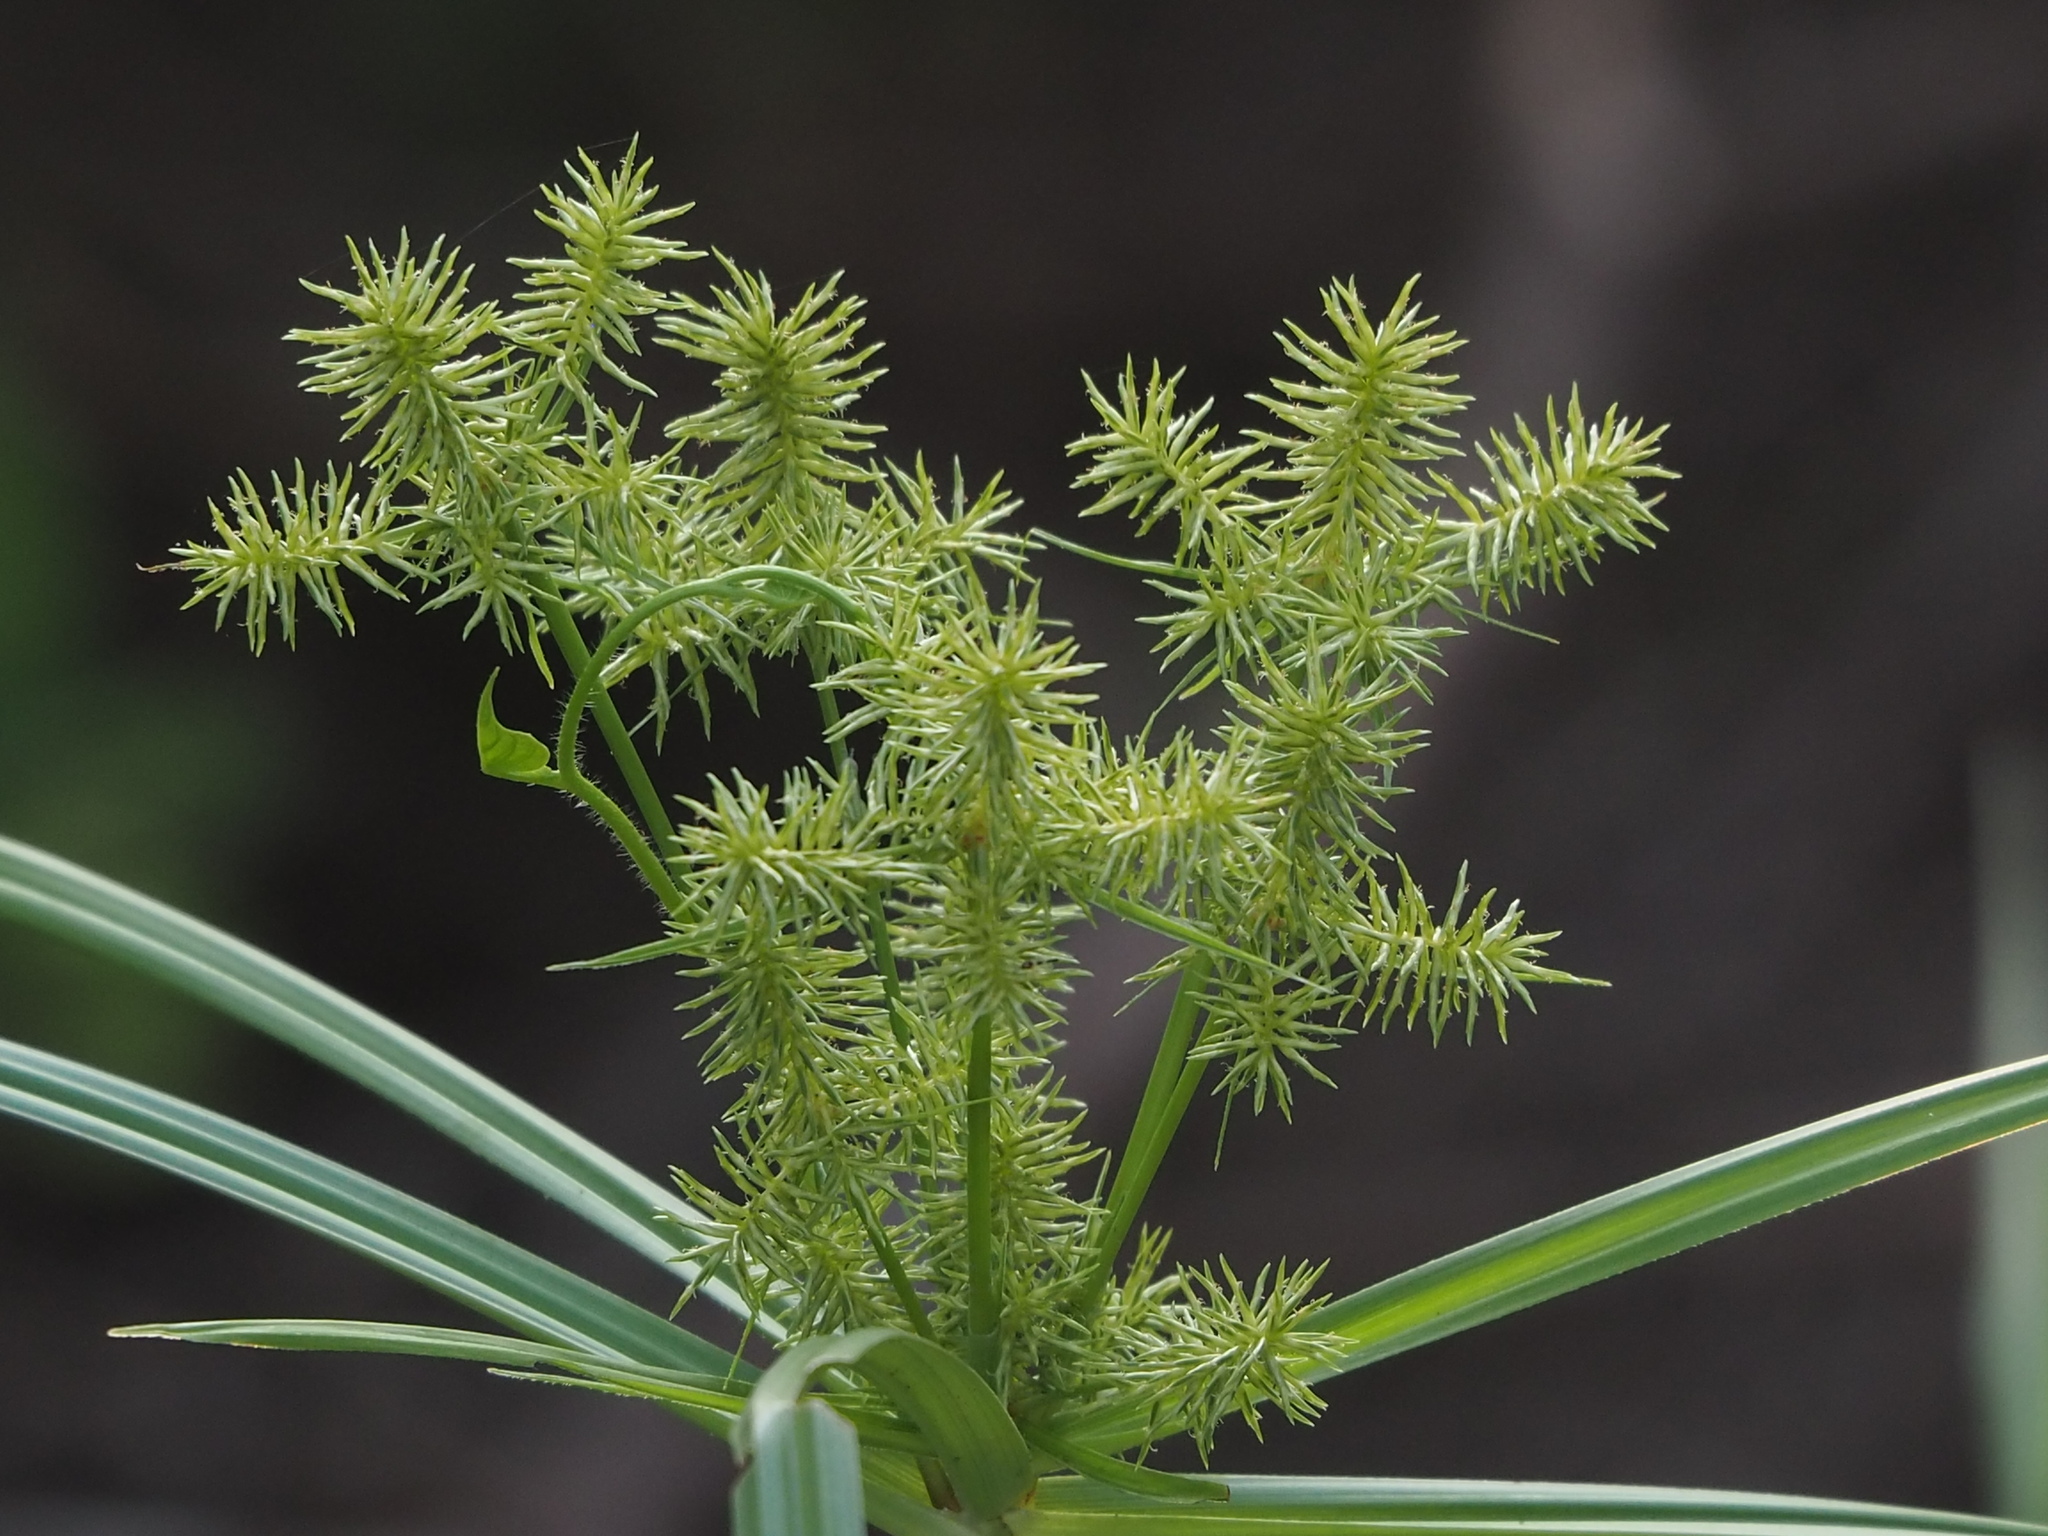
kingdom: Plantae
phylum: Tracheophyta
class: Liliopsida
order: Poales
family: Cyperaceae
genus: Cyperus
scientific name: Cyperus odoratus
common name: Fragrant flatsedge
